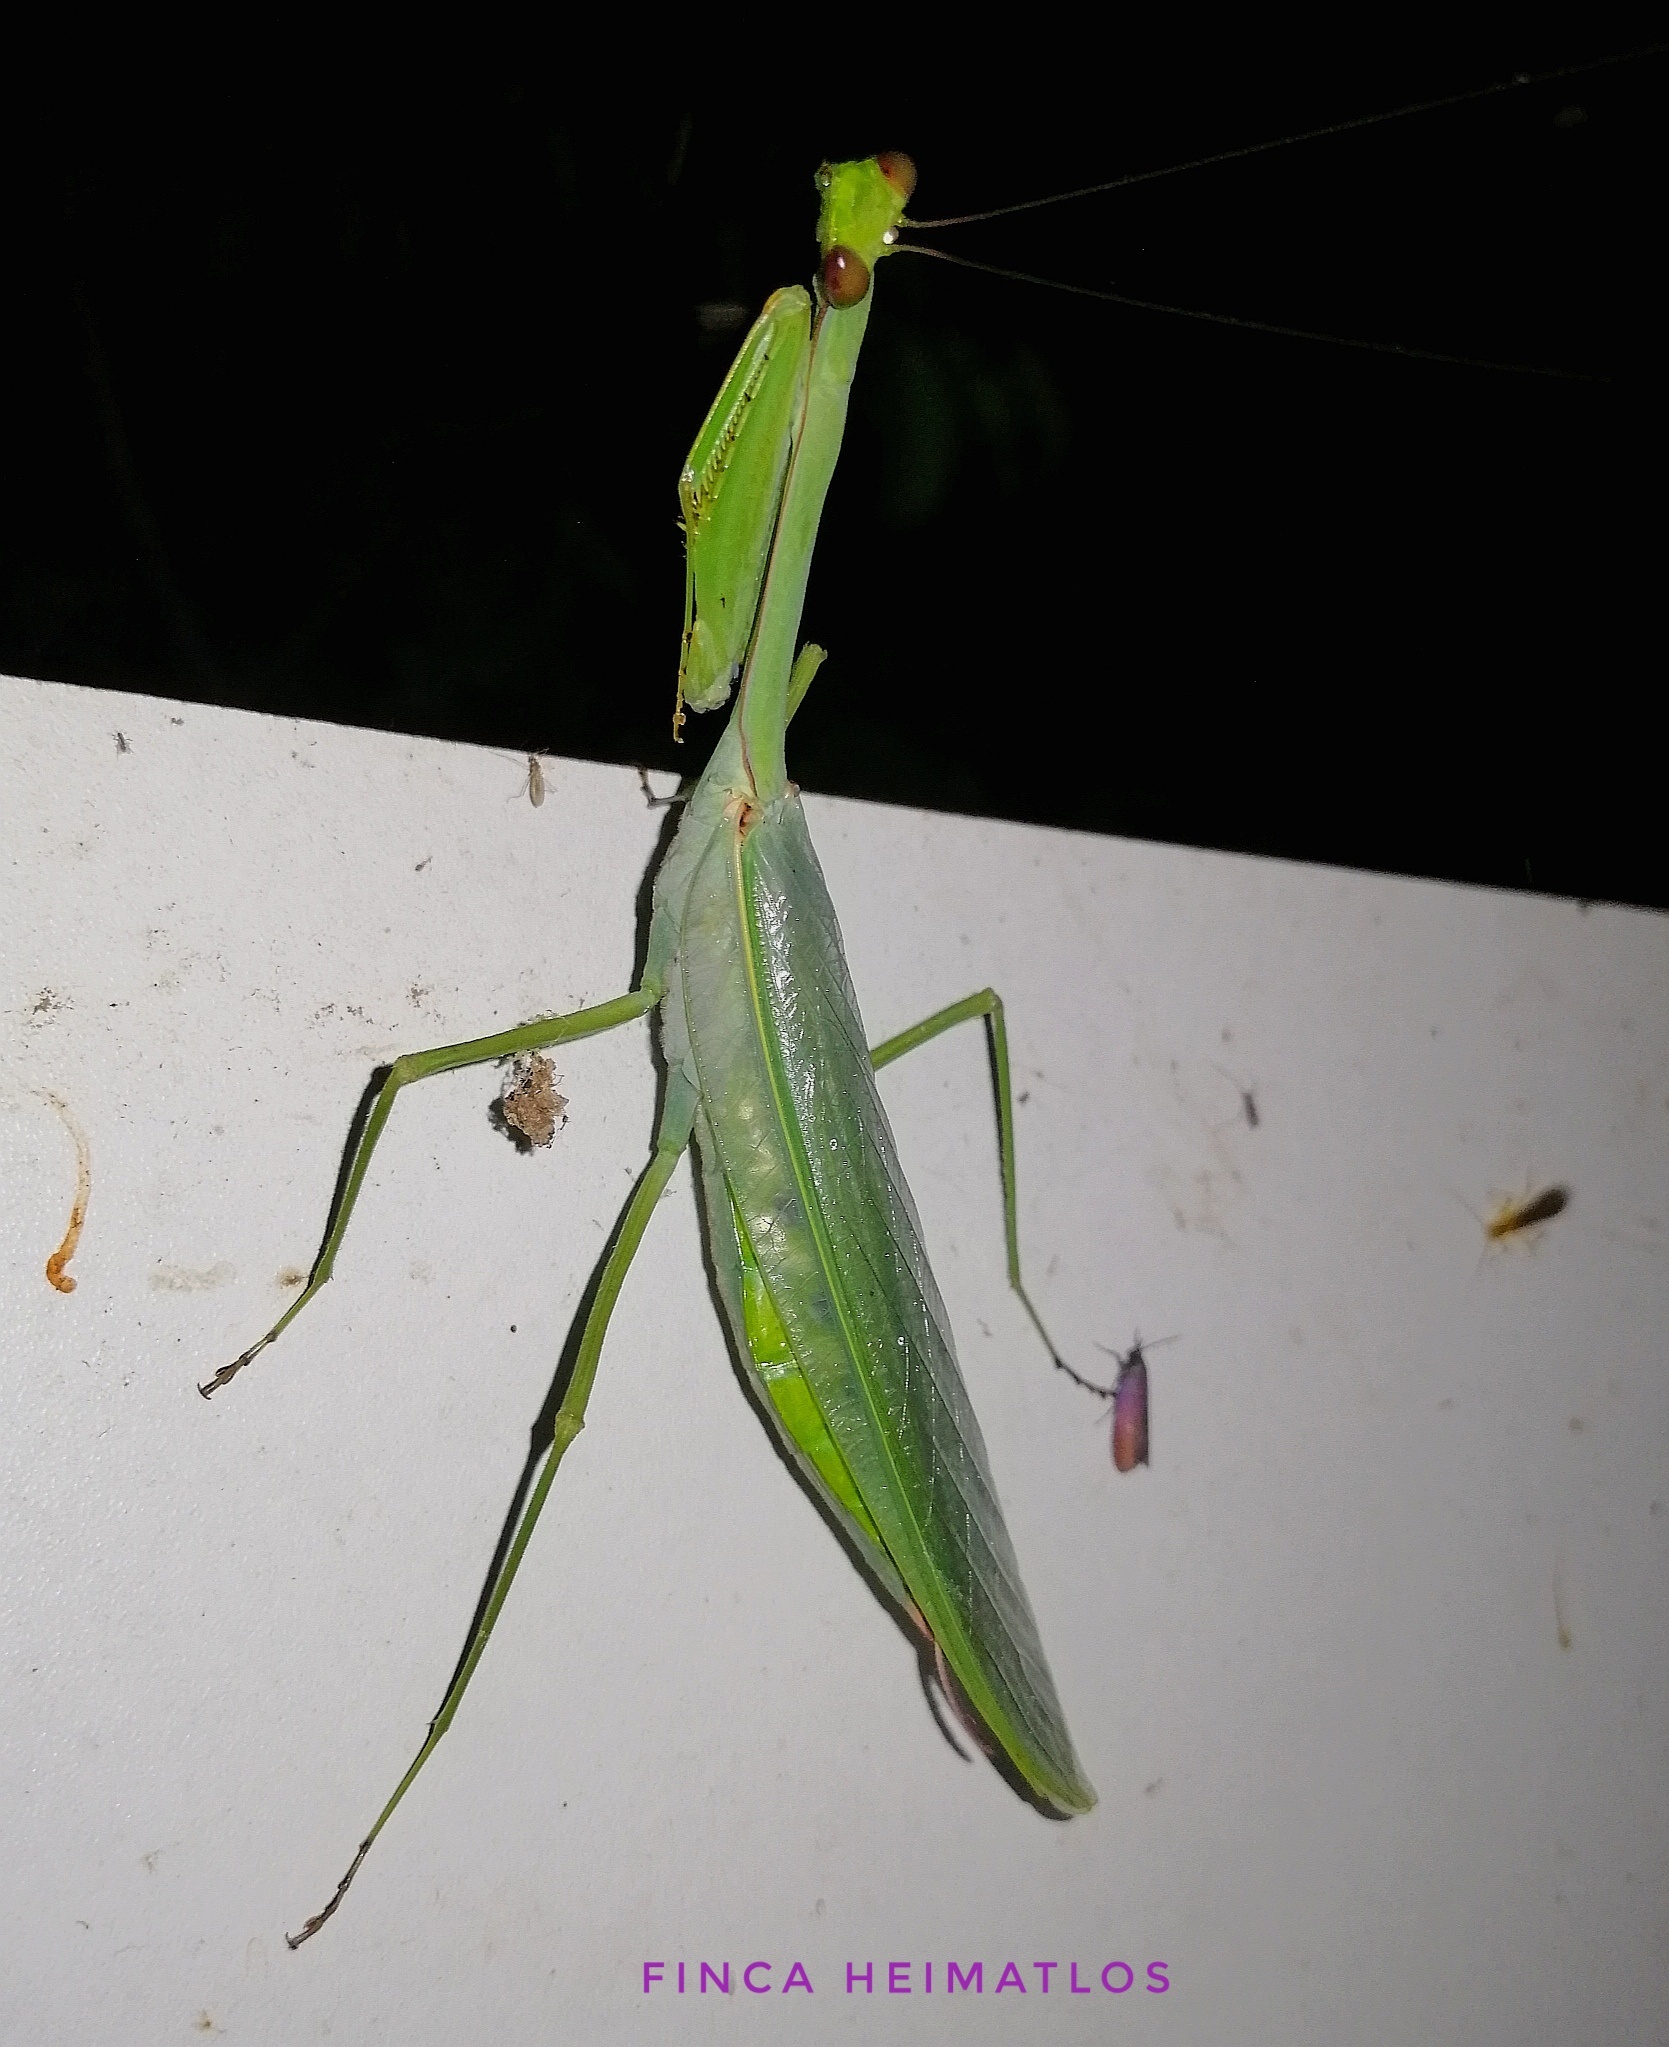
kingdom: Animalia
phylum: Arthropoda
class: Insecta
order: Mantodea
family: Photinaidae
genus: Macromantis
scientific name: Macromantis hyalina
